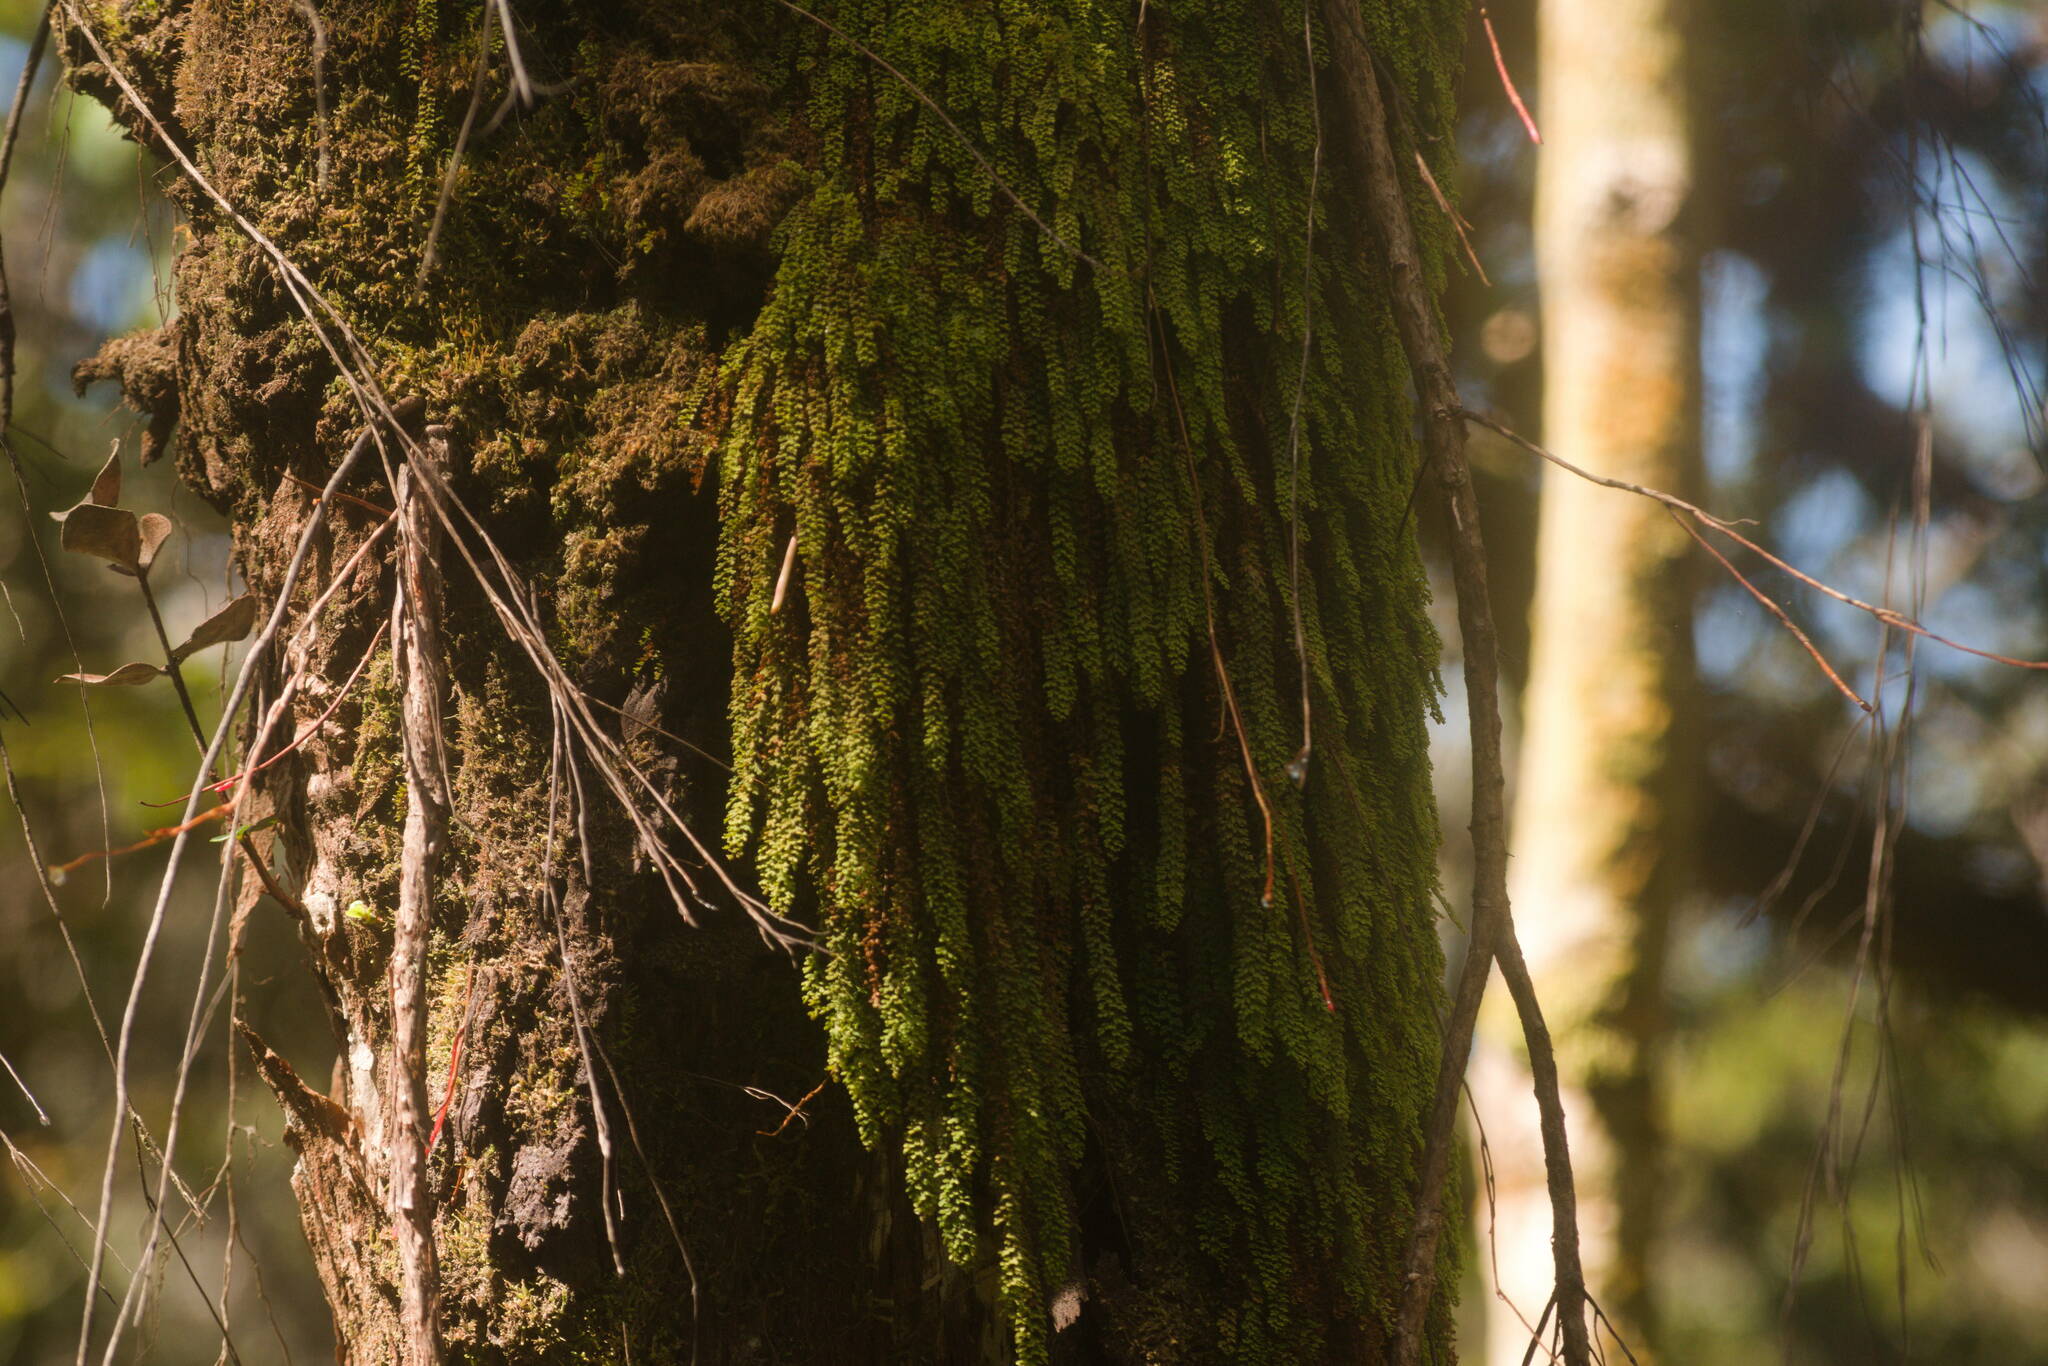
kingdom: Plantae
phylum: Tracheophyta
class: Polypodiopsida
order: Polypodiales
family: Polypodiaceae
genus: Adenophorus
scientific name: Adenophorus hymenophylloides
